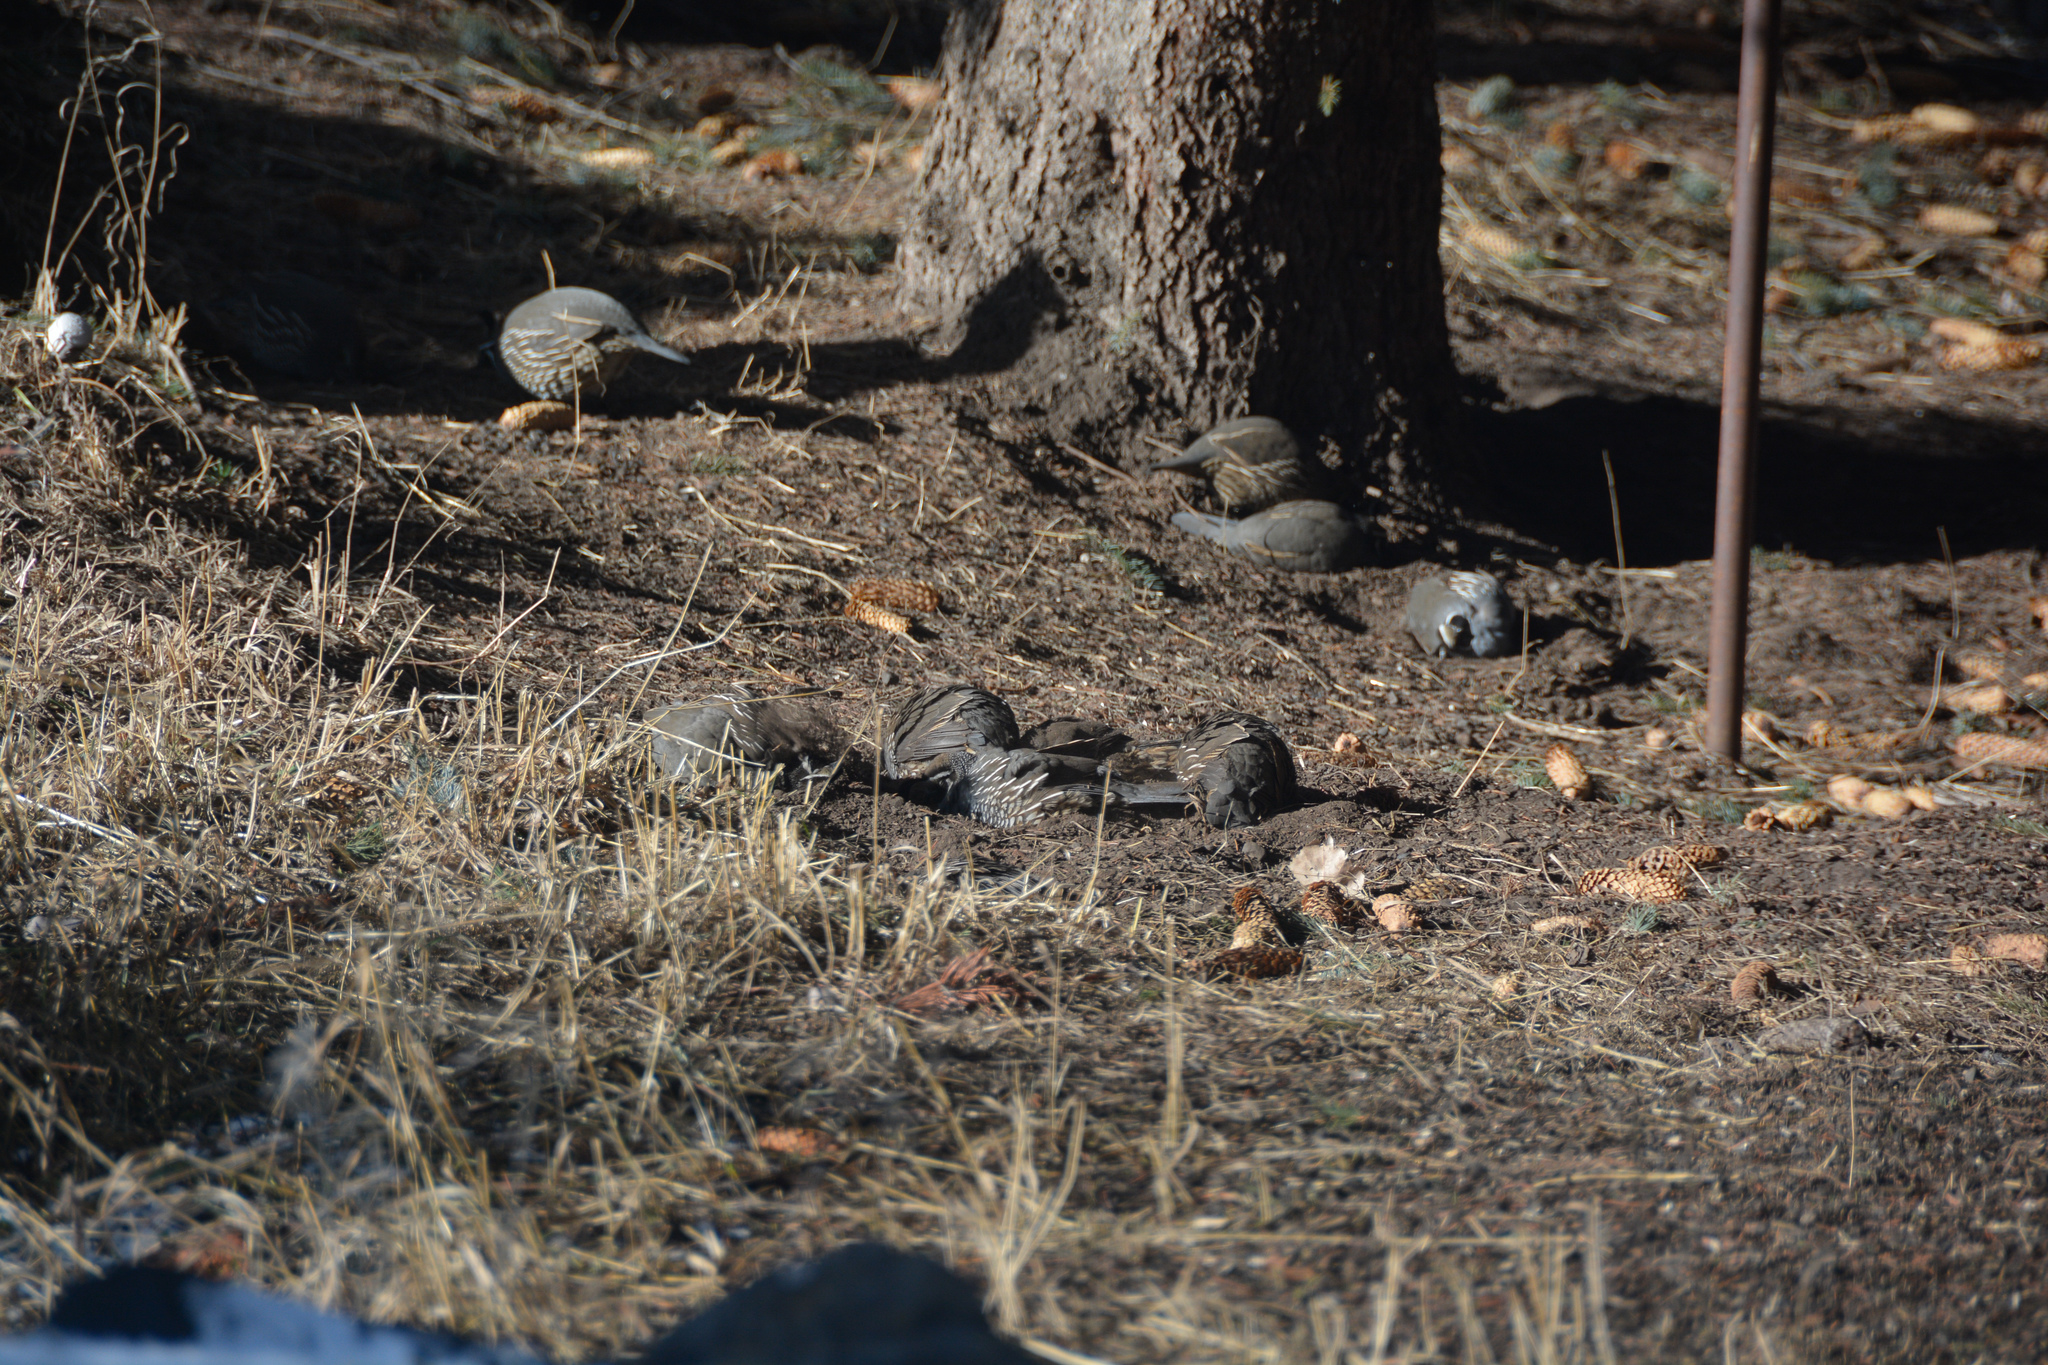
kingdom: Animalia
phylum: Chordata
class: Aves
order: Galliformes
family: Odontophoridae
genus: Callipepla
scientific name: Callipepla californica
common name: California quail
